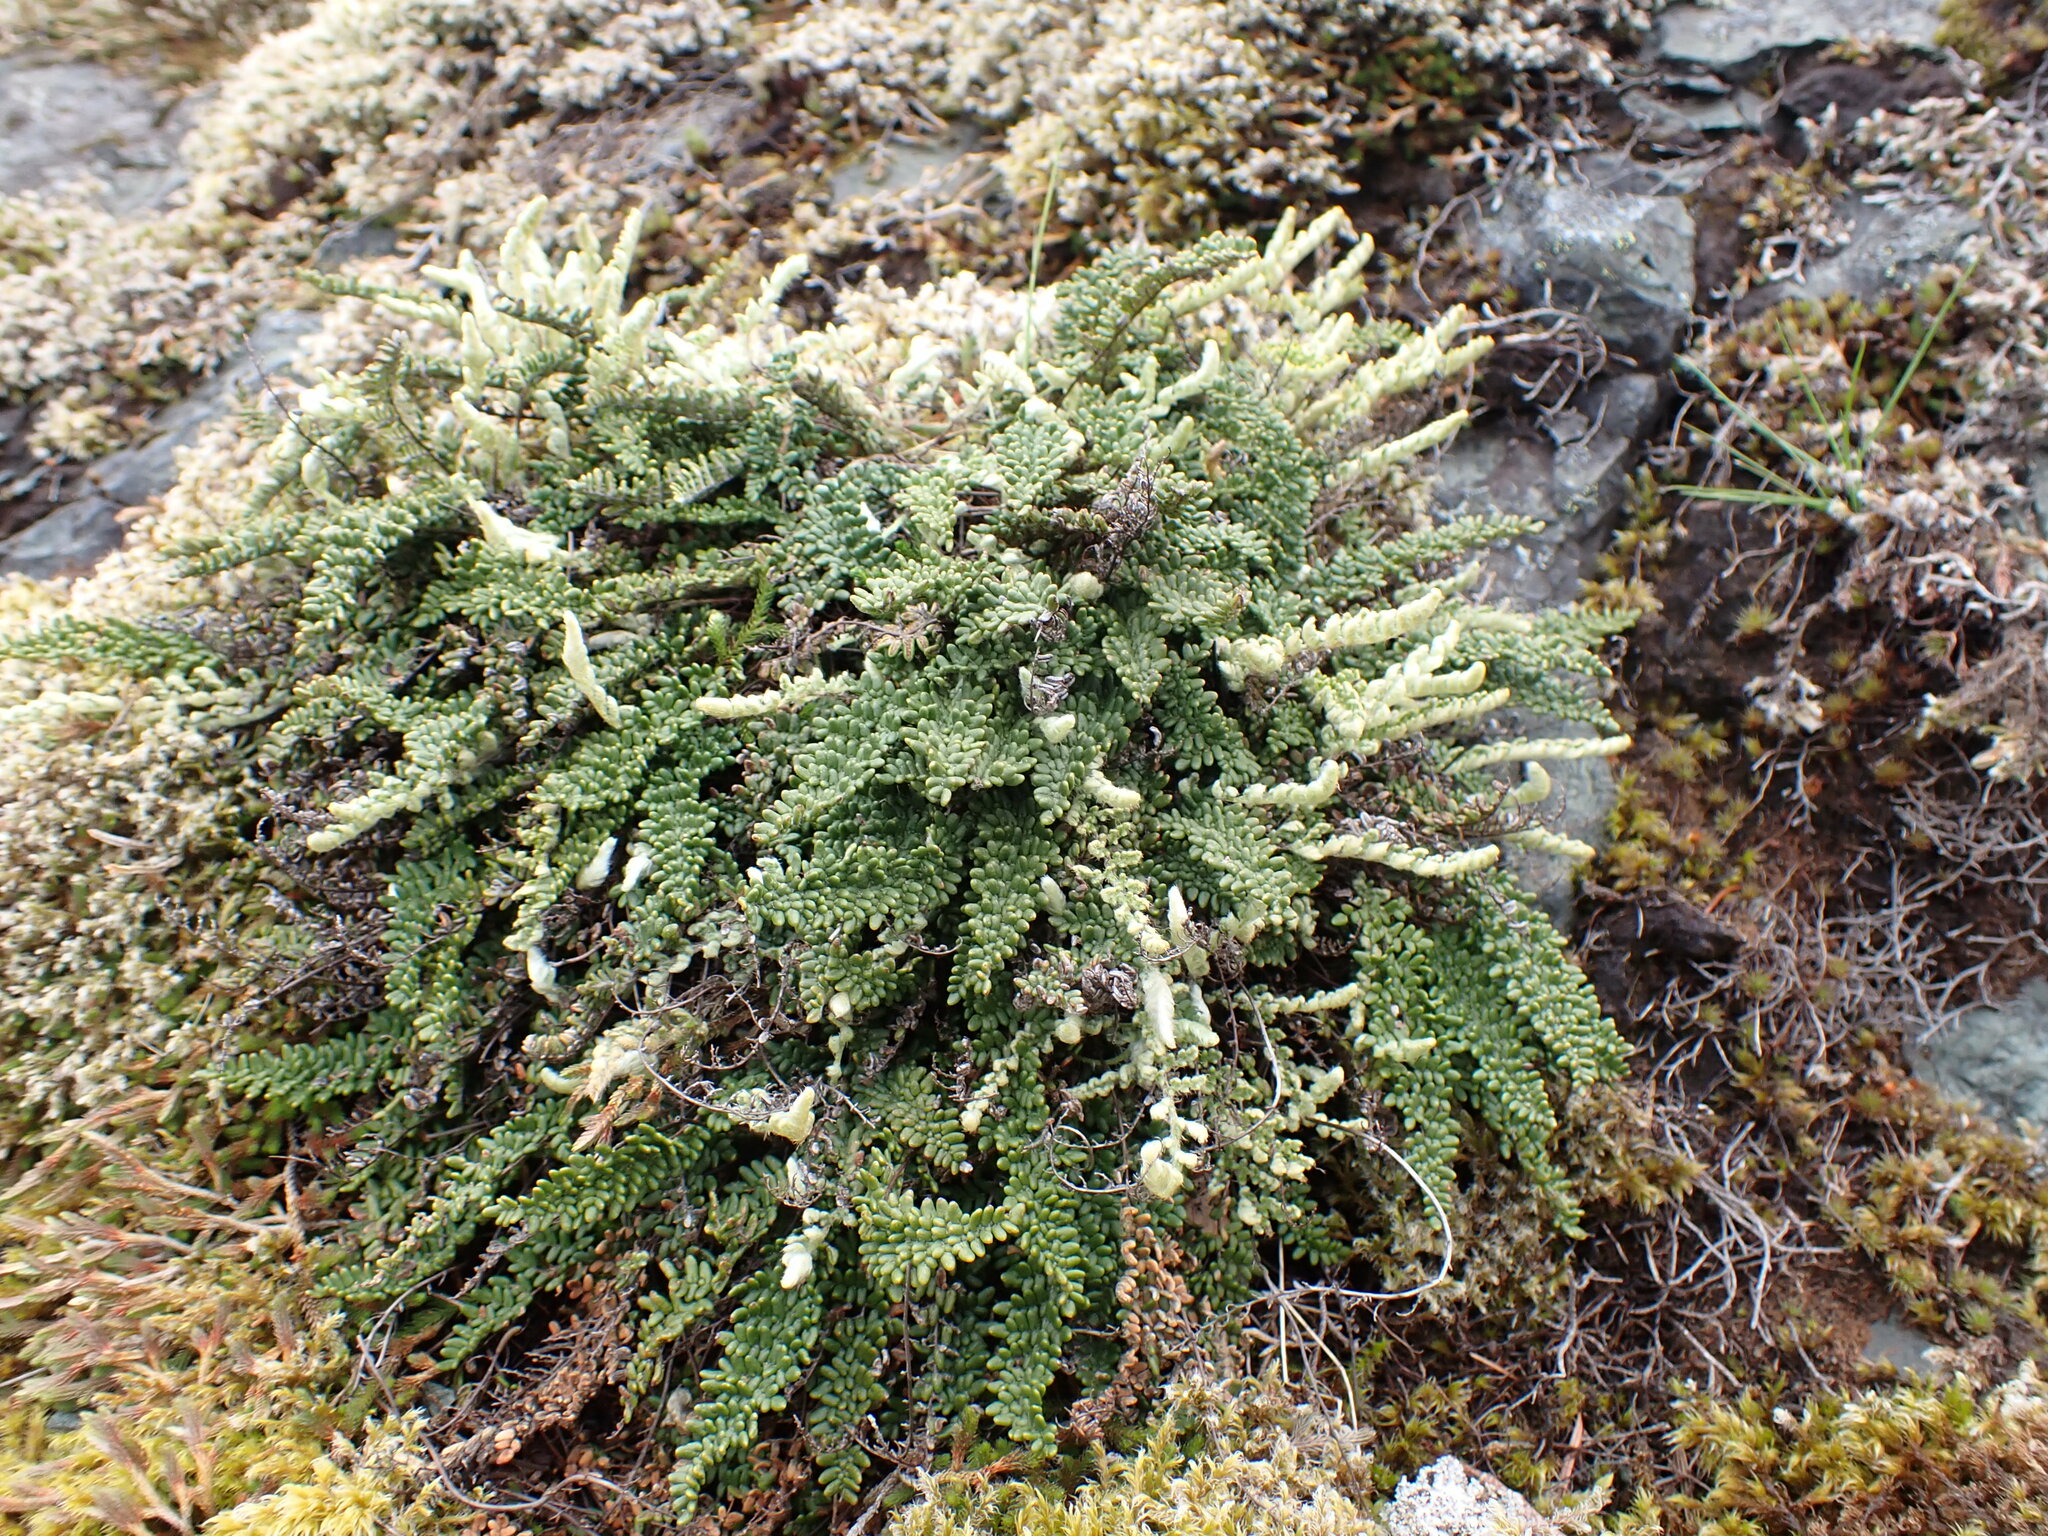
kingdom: Plantae
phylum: Tracheophyta
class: Polypodiopsida
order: Polypodiales
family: Pteridaceae
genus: Myriopteris
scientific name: Myriopteris gracillima
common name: Lace fern
